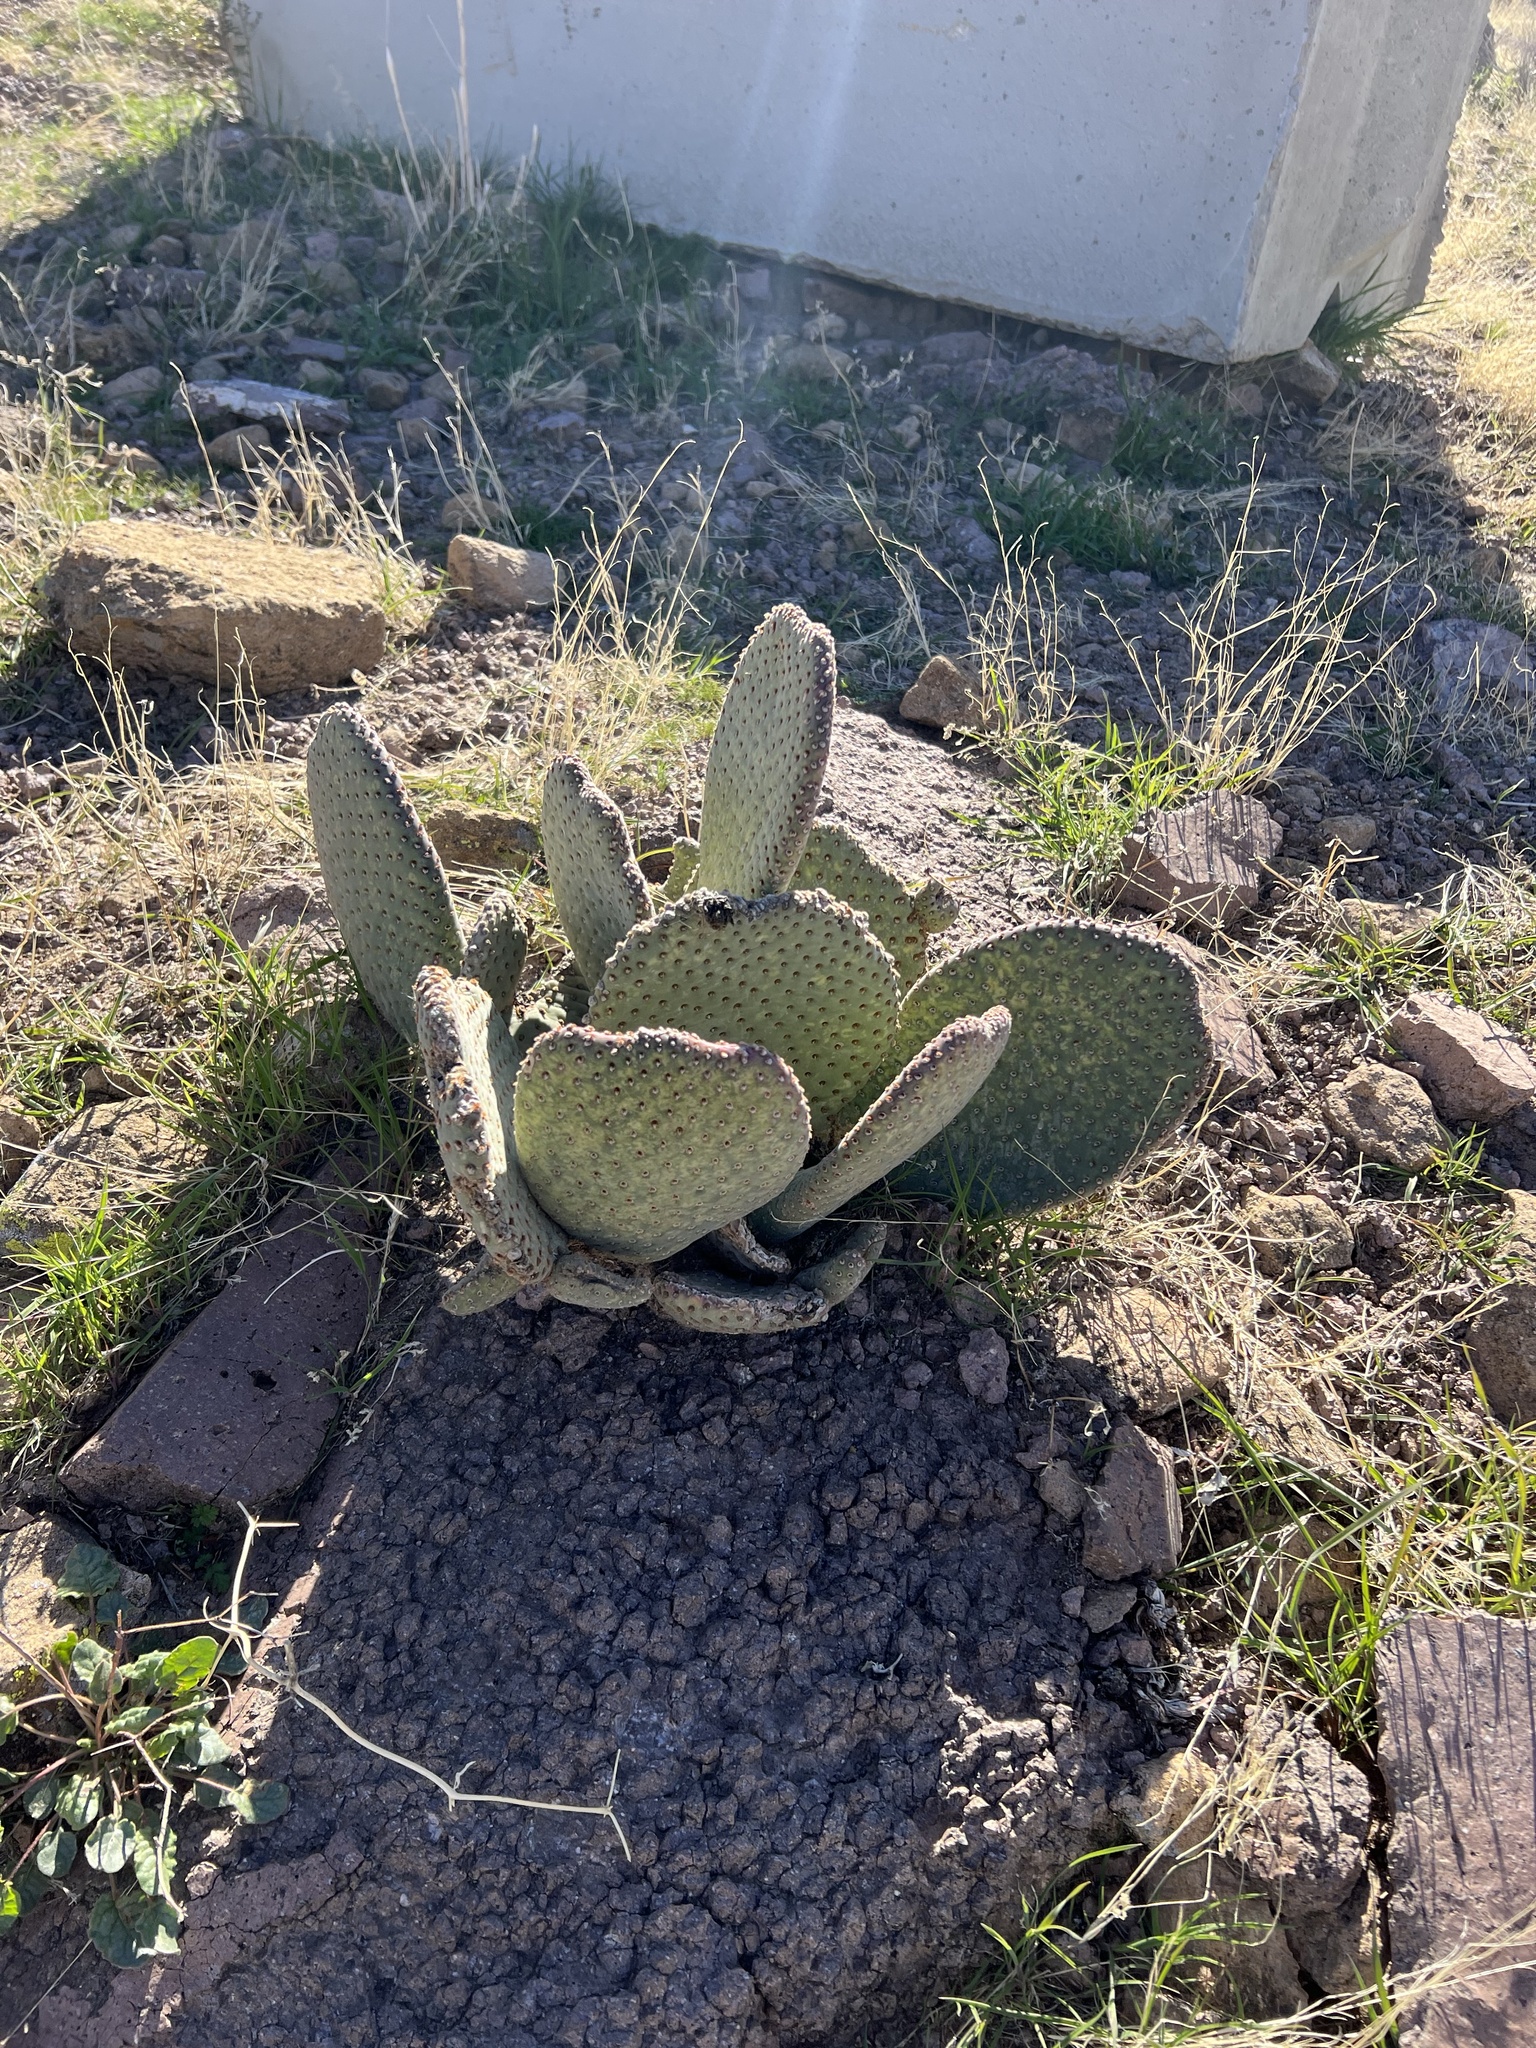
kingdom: Plantae
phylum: Tracheophyta
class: Magnoliopsida
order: Caryophyllales
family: Cactaceae
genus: Opuntia
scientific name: Opuntia basilaris
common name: Beavertail prickly-pear
